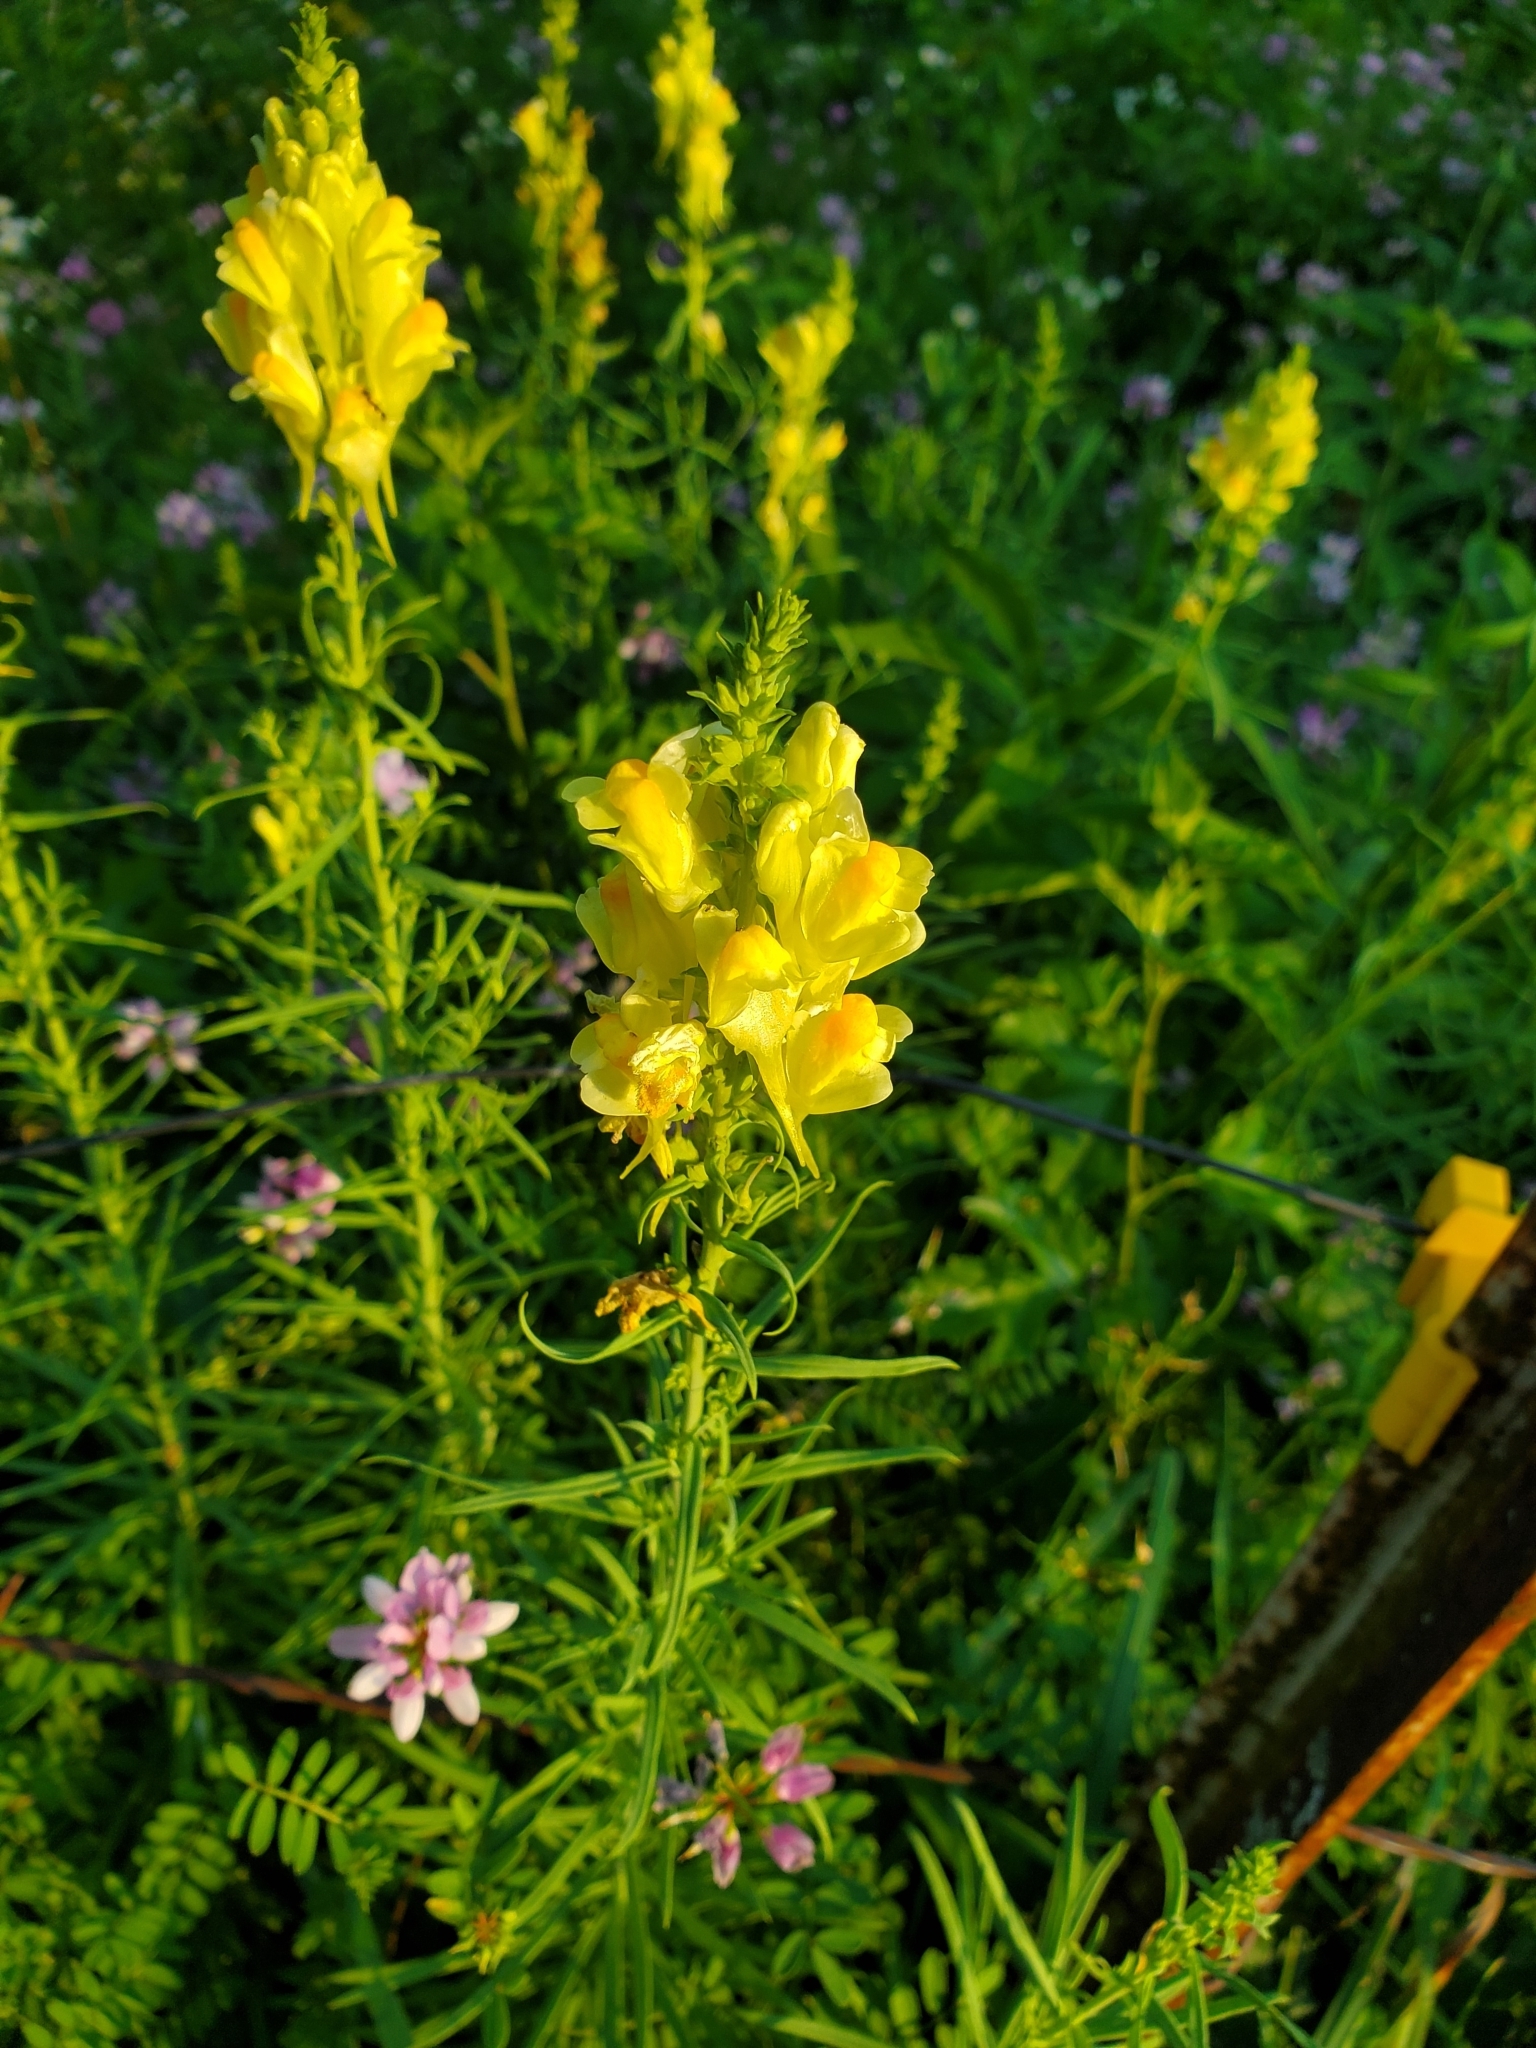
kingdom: Plantae
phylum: Tracheophyta
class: Magnoliopsida
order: Lamiales
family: Plantaginaceae
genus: Linaria
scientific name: Linaria vulgaris
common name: Butter and eggs
